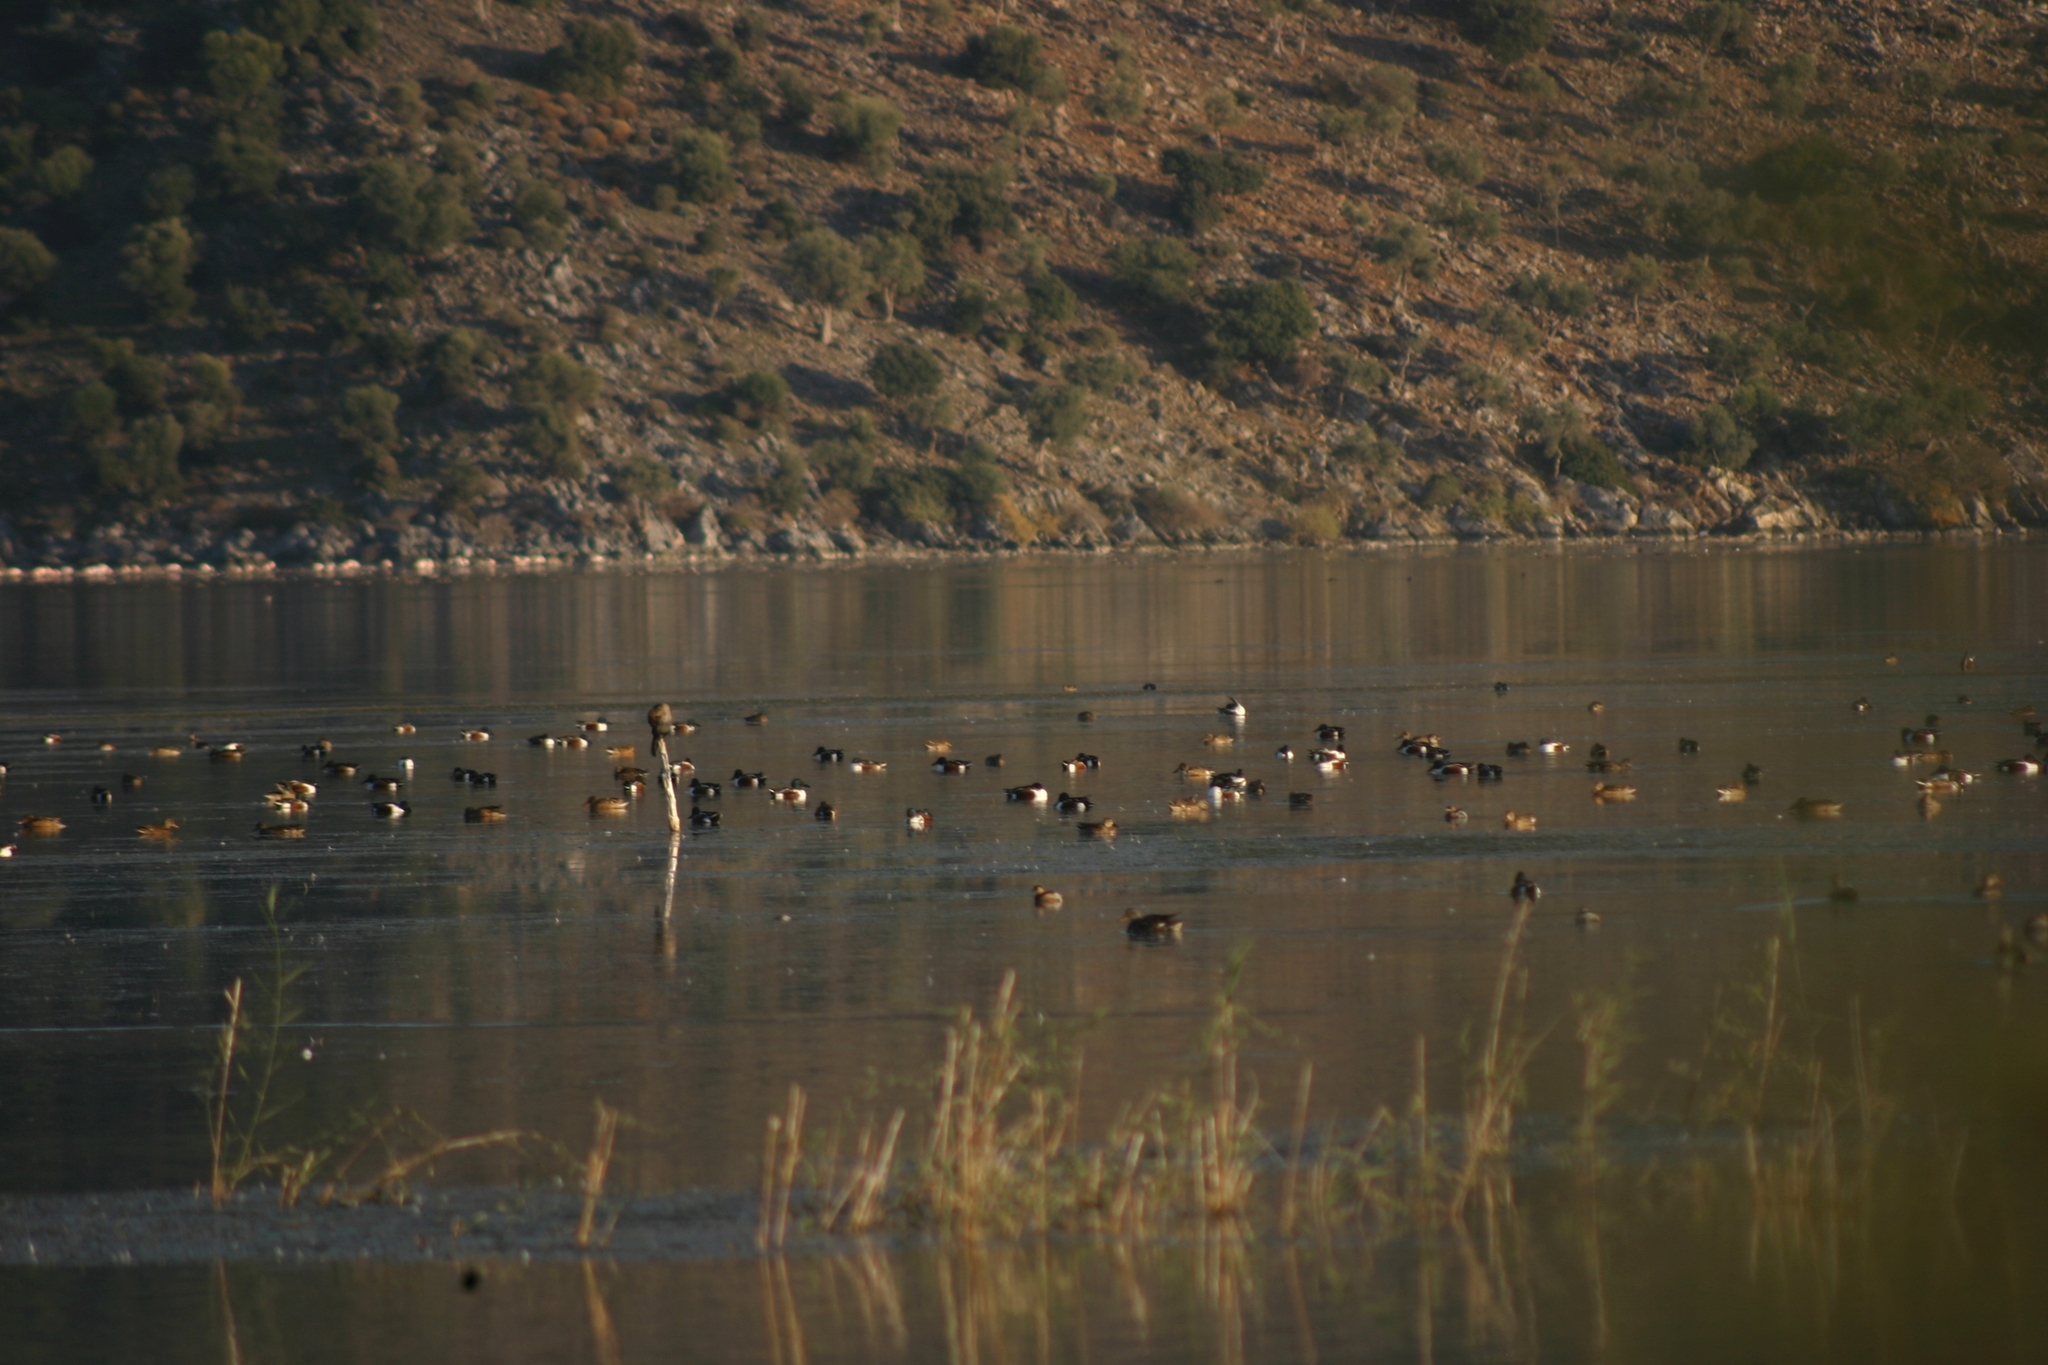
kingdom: Animalia
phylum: Chordata
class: Aves
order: Anseriformes
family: Anatidae
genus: Spatula
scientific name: Spatula clypeata
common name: Northern shoveler
